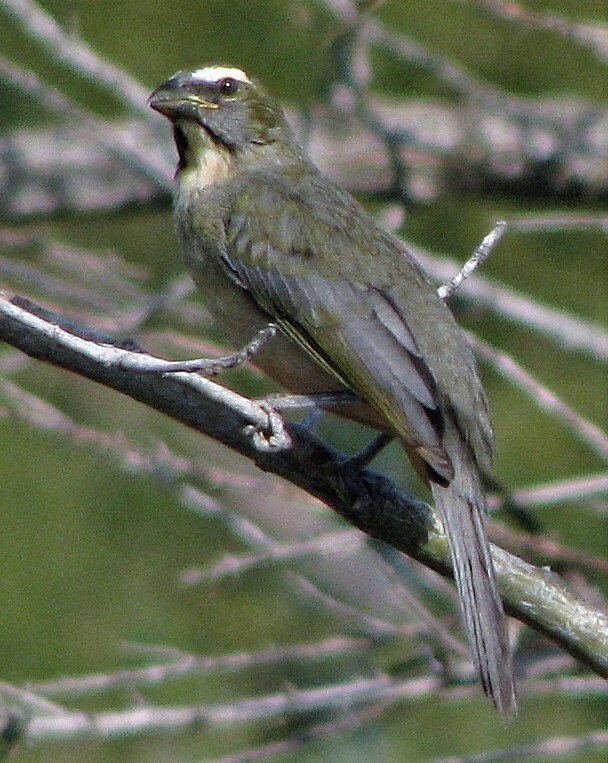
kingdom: Animalia
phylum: Chordata
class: Aves
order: Passeriformes
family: Thraupidae
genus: Saltator
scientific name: Saltator coerulescens
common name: Grayish saltator
